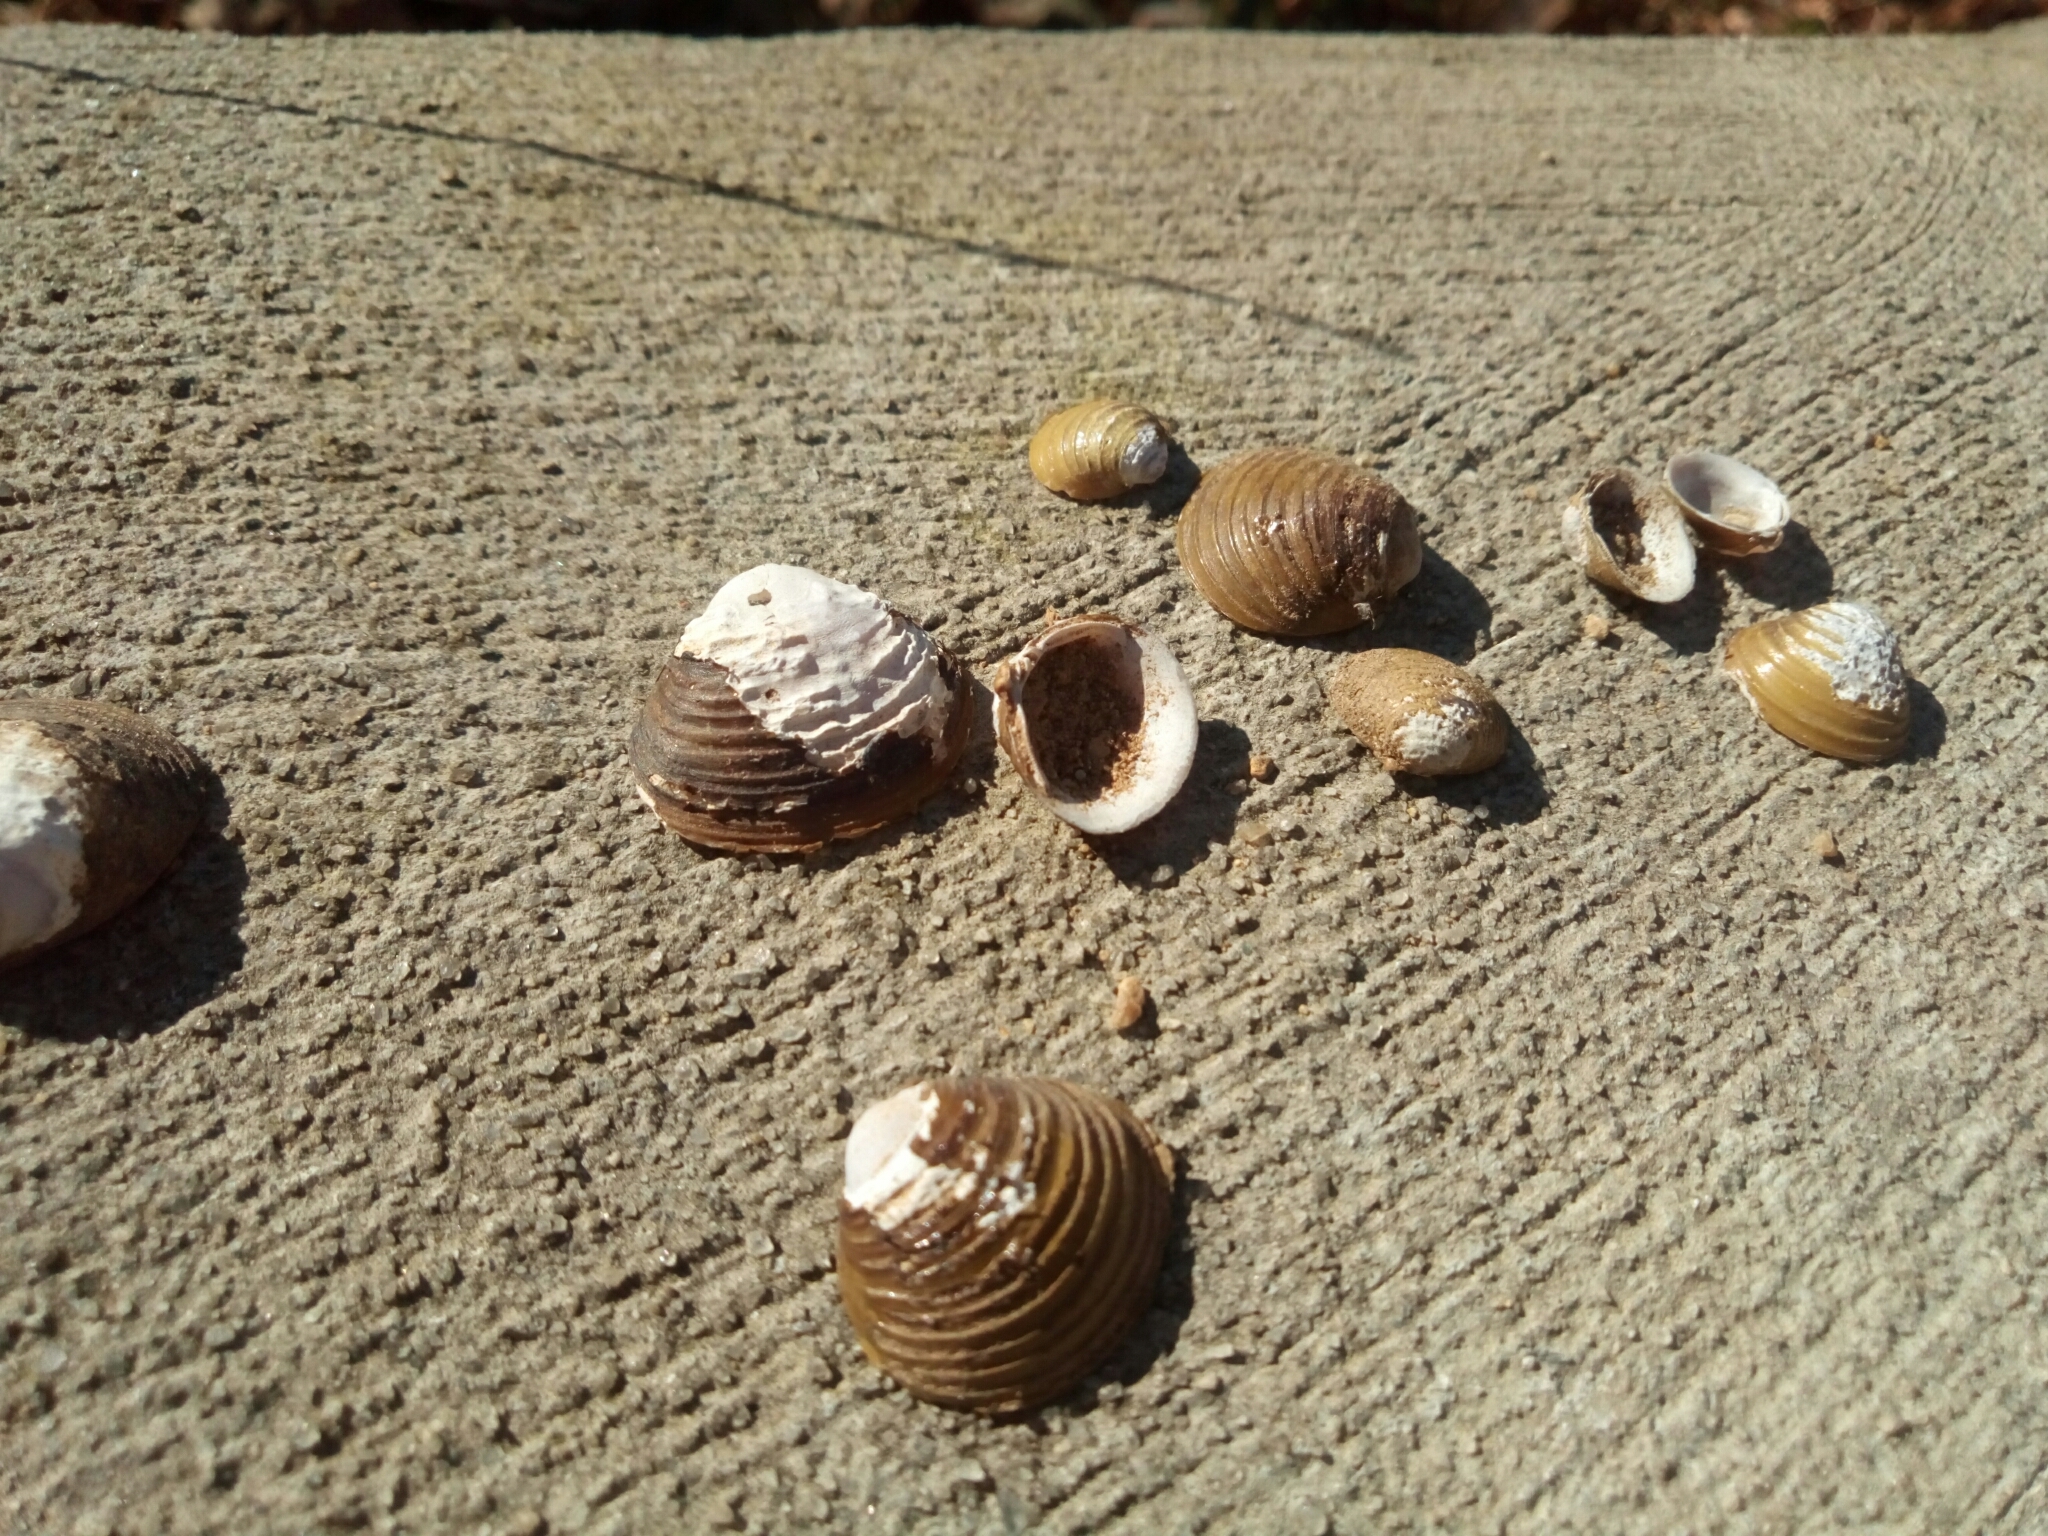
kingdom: Animalia
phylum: Mollusca
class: Bivalvia
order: Venerida
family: Cyrenidae
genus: Corbicula
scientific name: Corbicula fluminea
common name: Asian clam
